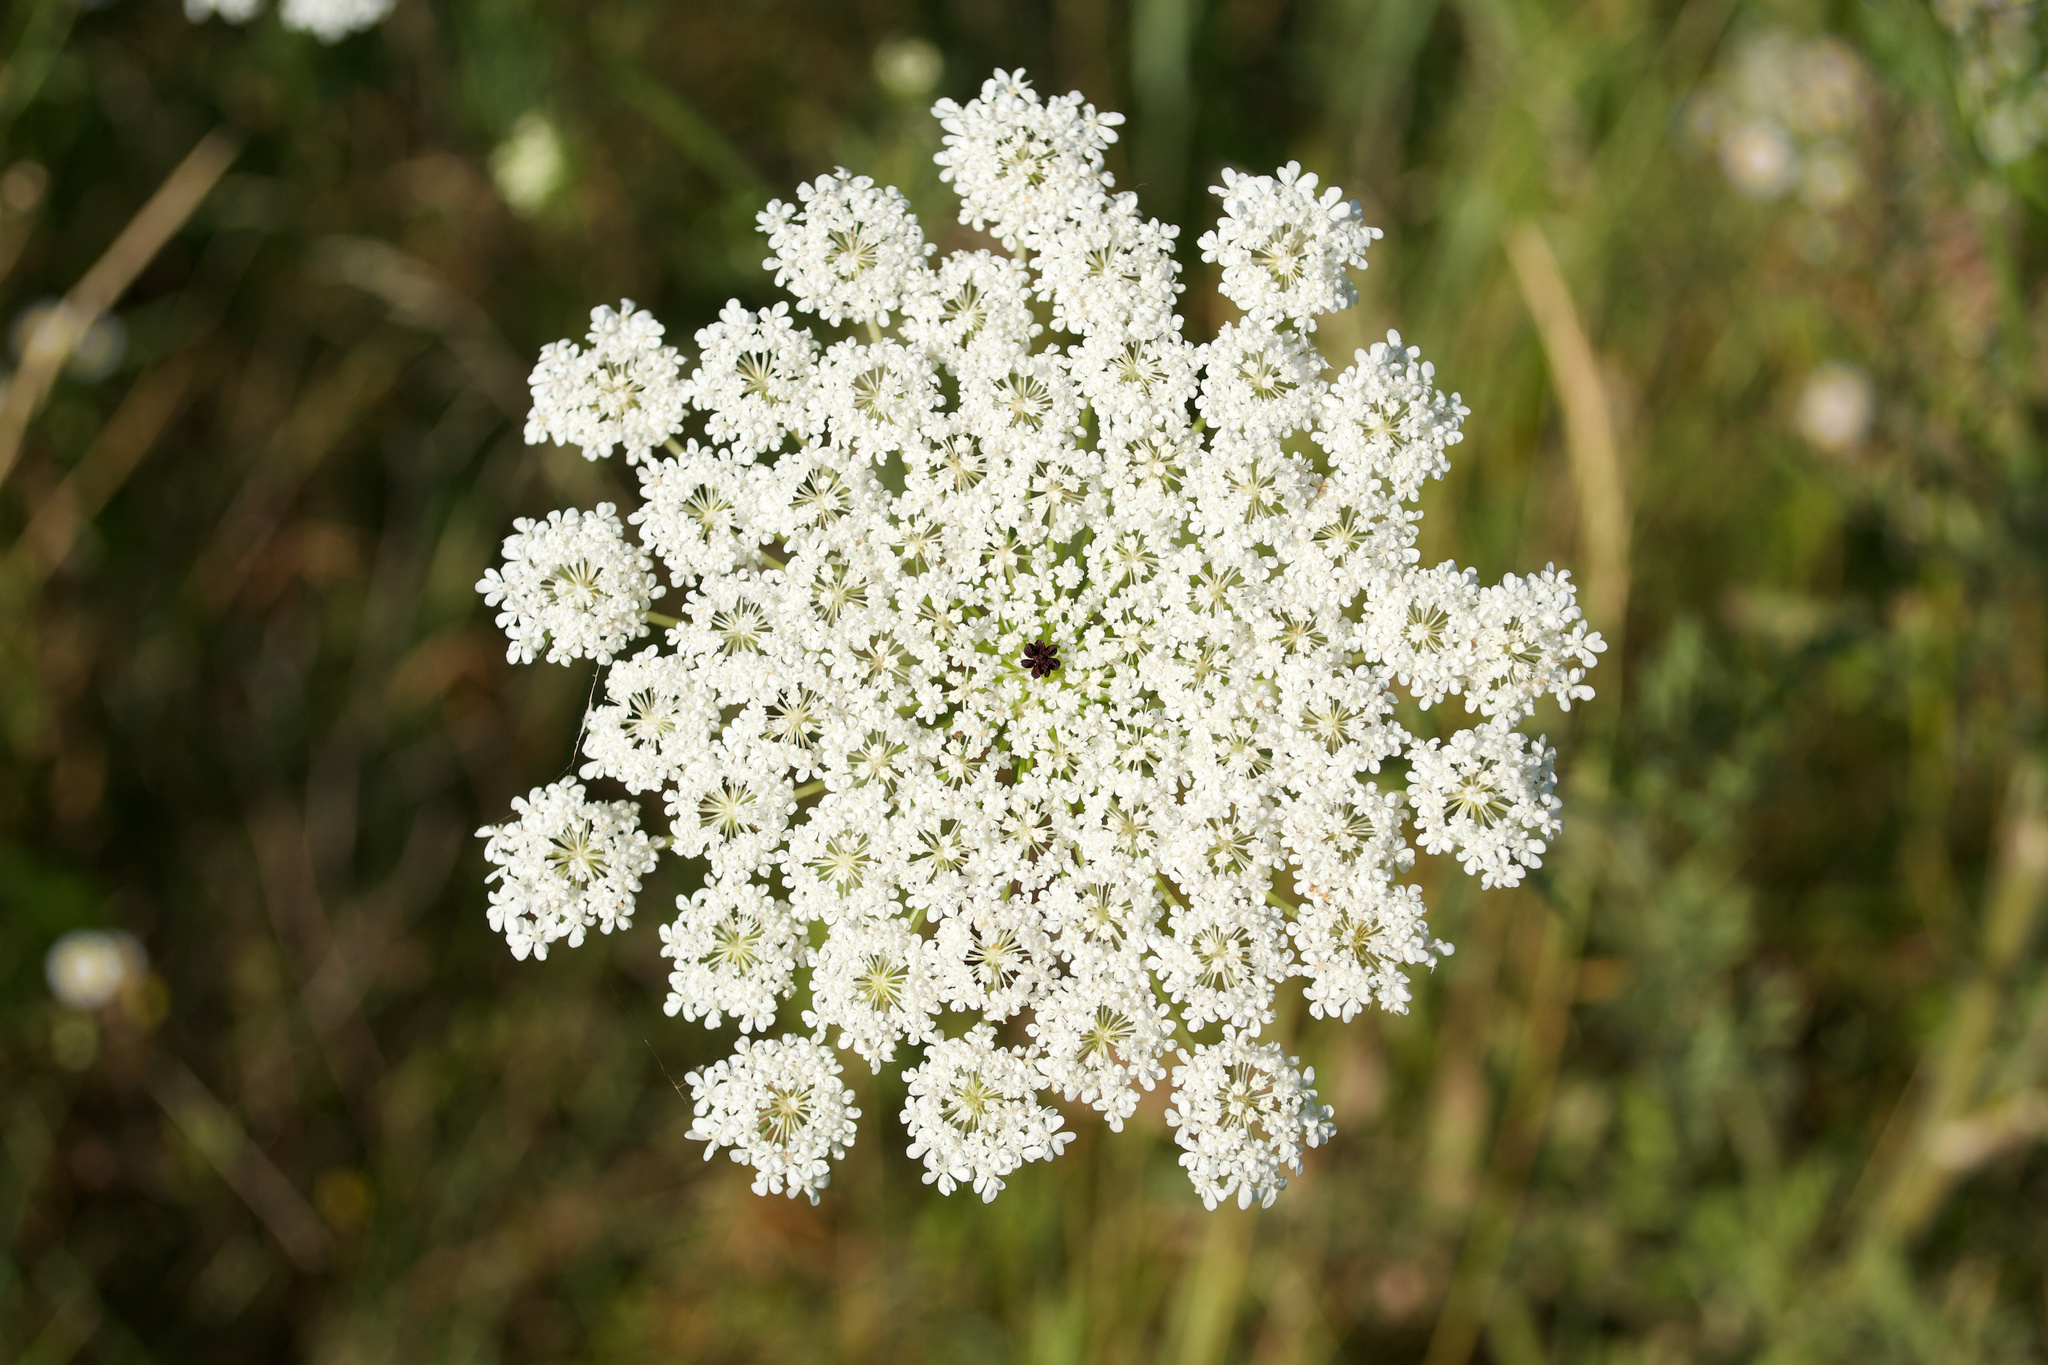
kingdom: Plantae
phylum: Tracheophyta
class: Magnoliopsida
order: Apiales
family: Apiaceae
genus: Daucus
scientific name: Daucus carota
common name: Wild carrot
